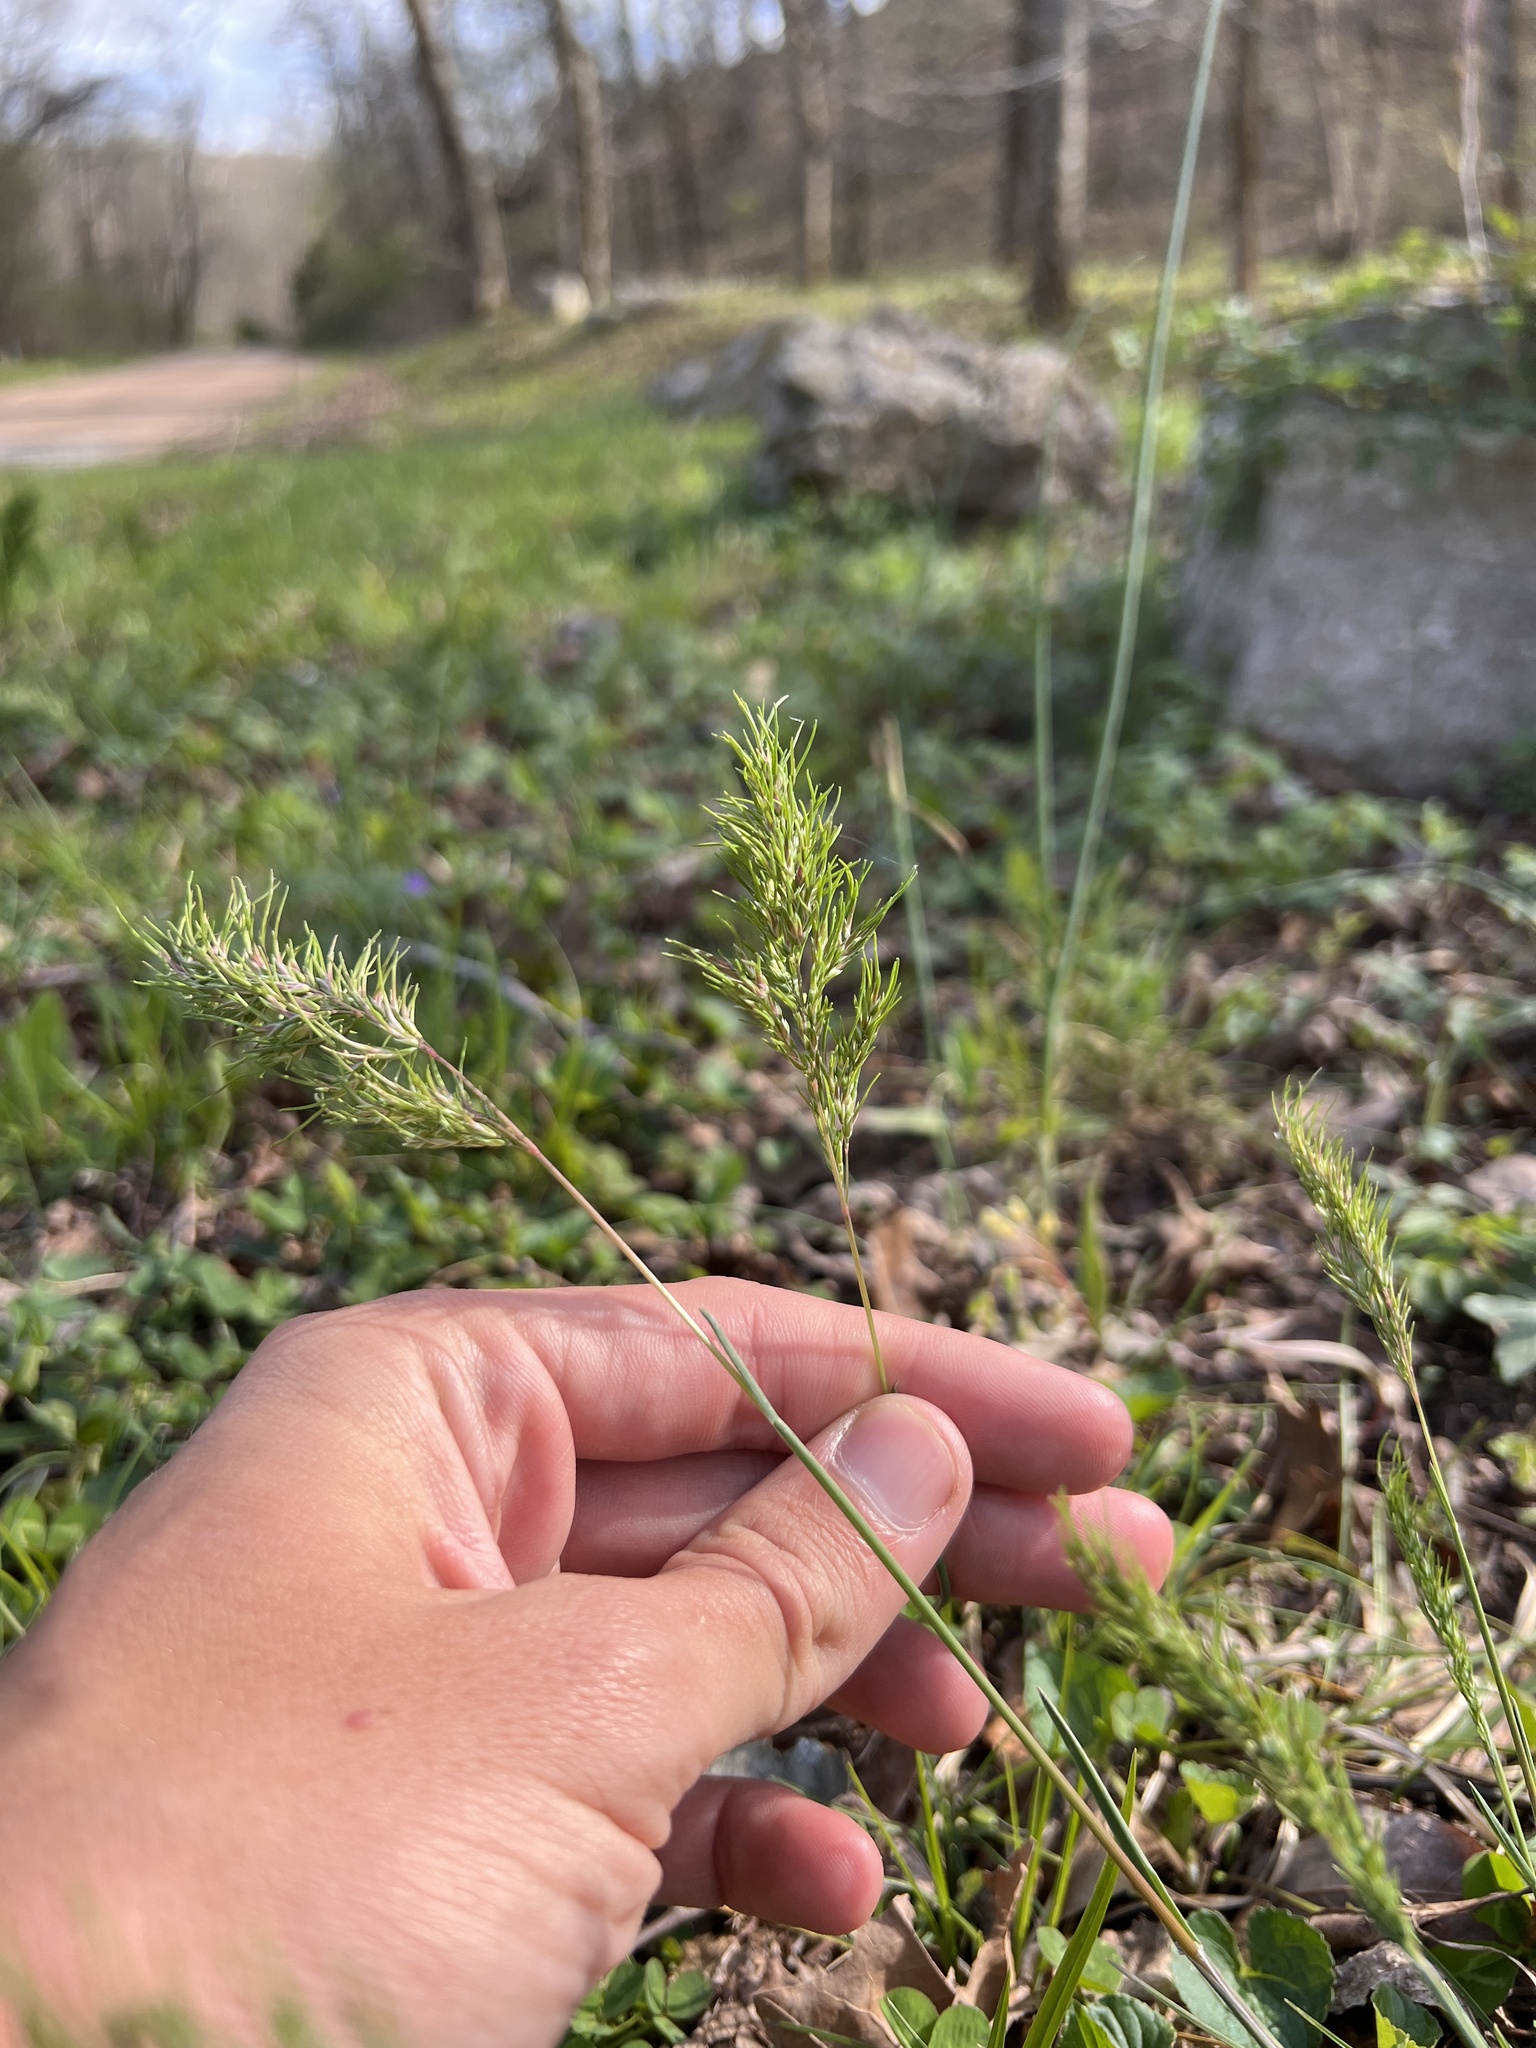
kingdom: Plantae
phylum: Tracheophyta
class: Liliopsida
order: Poales
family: Poaceae
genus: Poa
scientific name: Poa bulbosa
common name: Bulbous bluegrass
